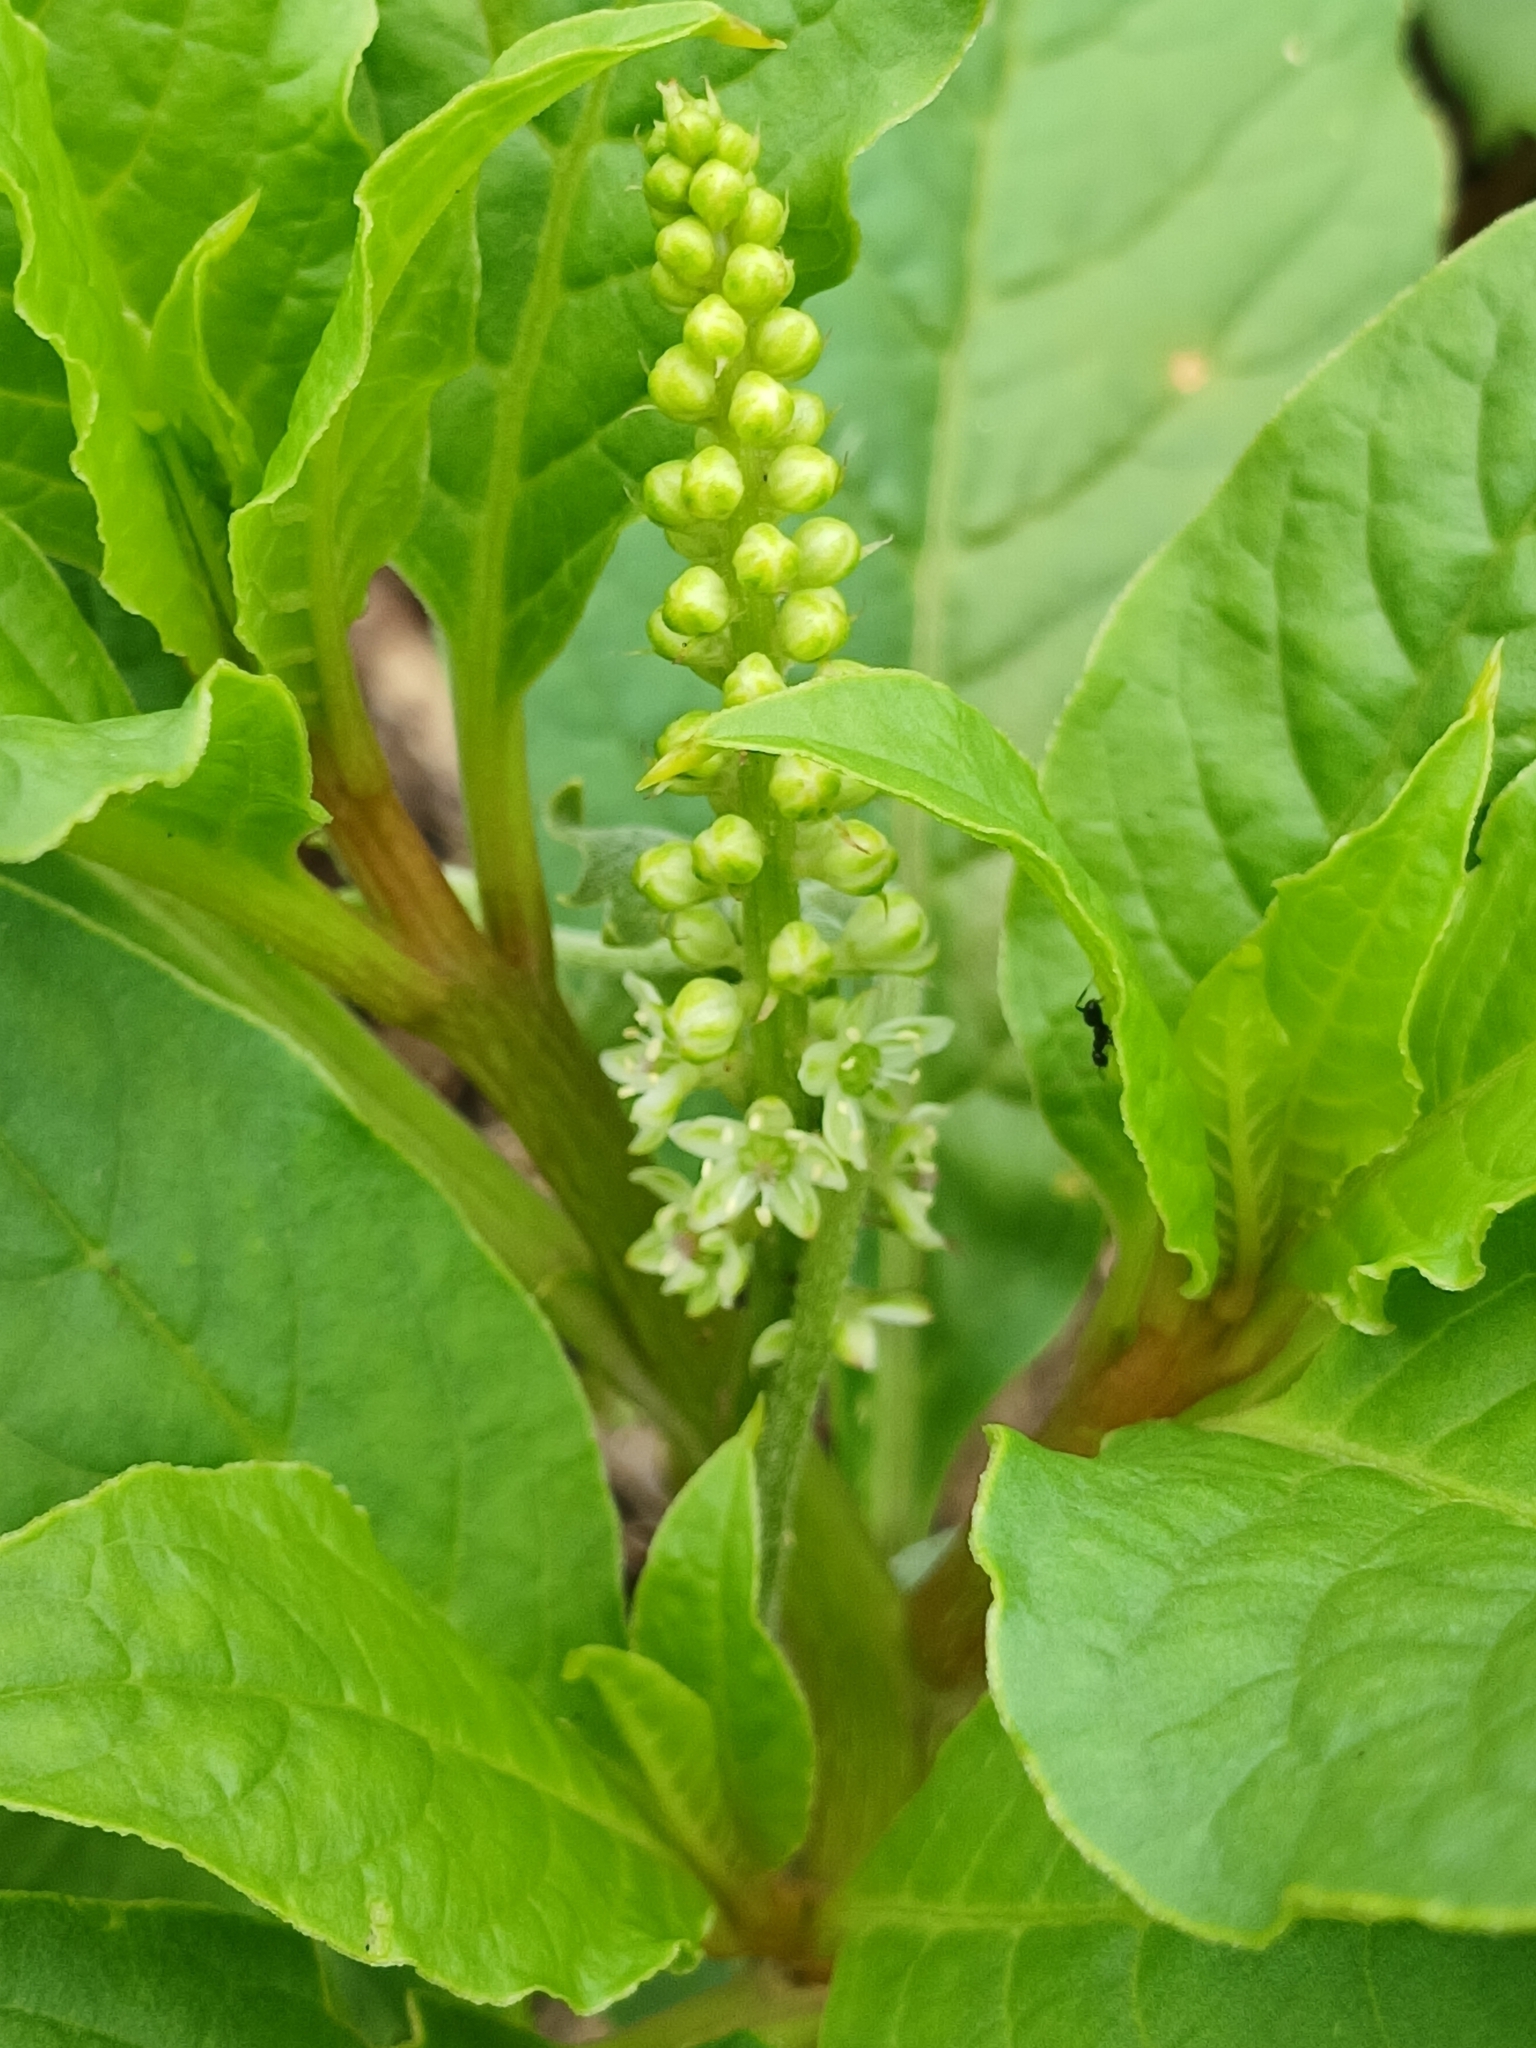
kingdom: Plantae
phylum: Tracheophyta
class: Magnoliopsida
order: Caryophyllales
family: Phytolaccaceae
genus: Phytolacca
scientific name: Phytolacca icosandra
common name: Button pokeweed
